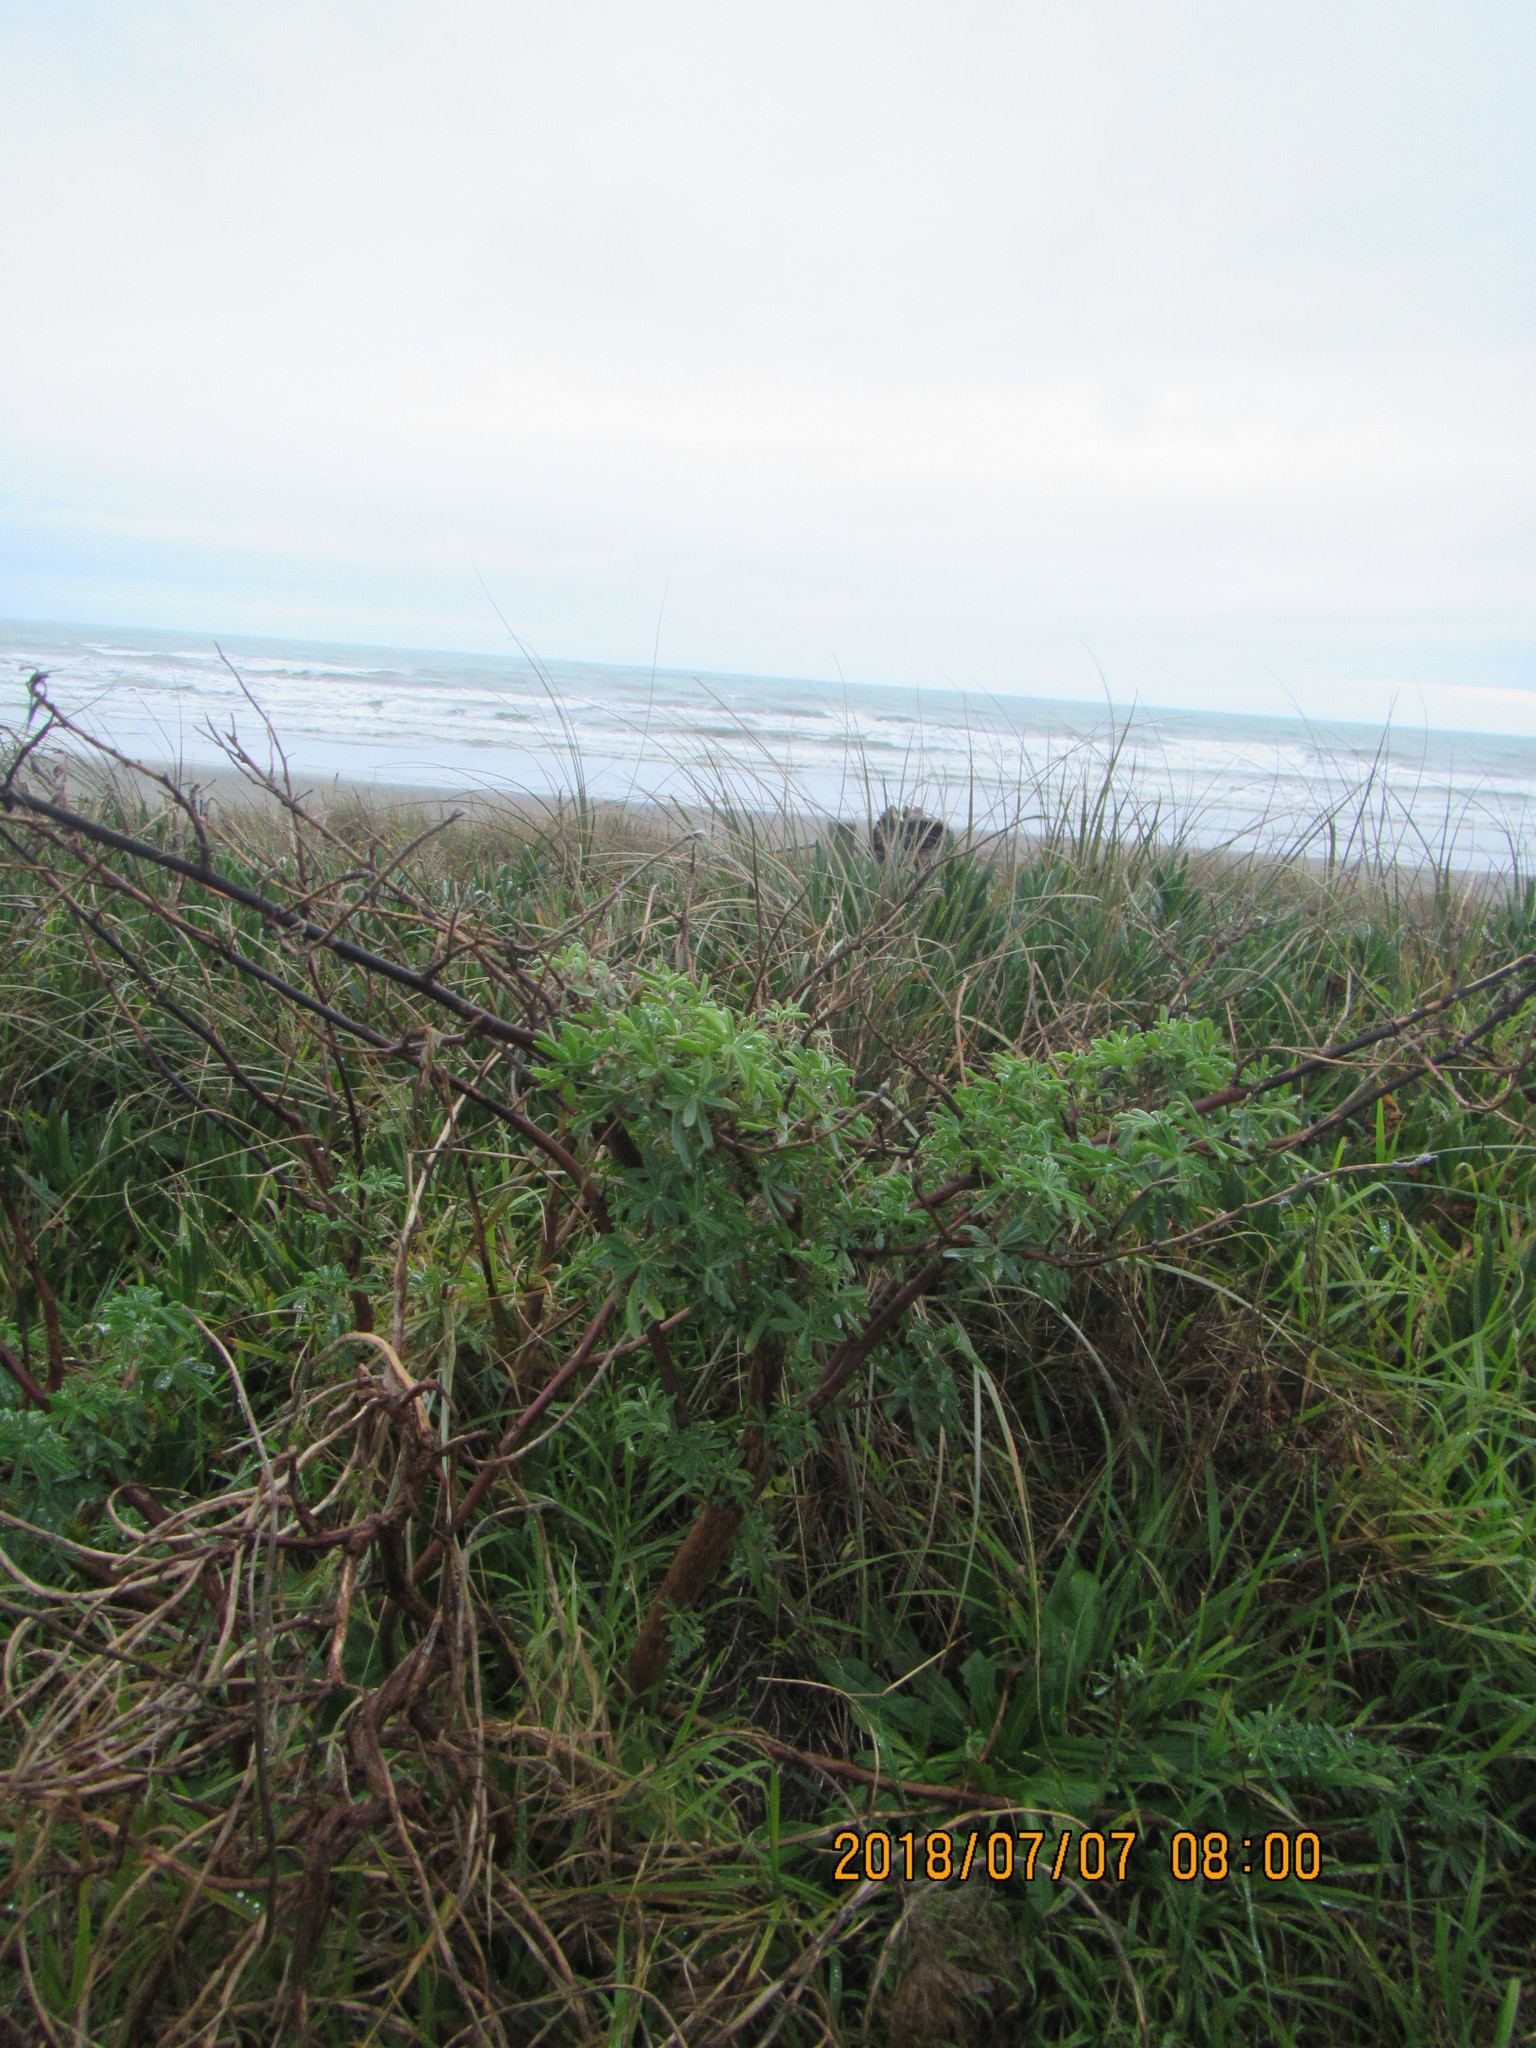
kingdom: Plantae
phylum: Tracheophyta
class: Magnoliopsida
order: Fabales
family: Fabaceae
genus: Lupinus
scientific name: Lupinus arboreus
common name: Yellow bush lupine
